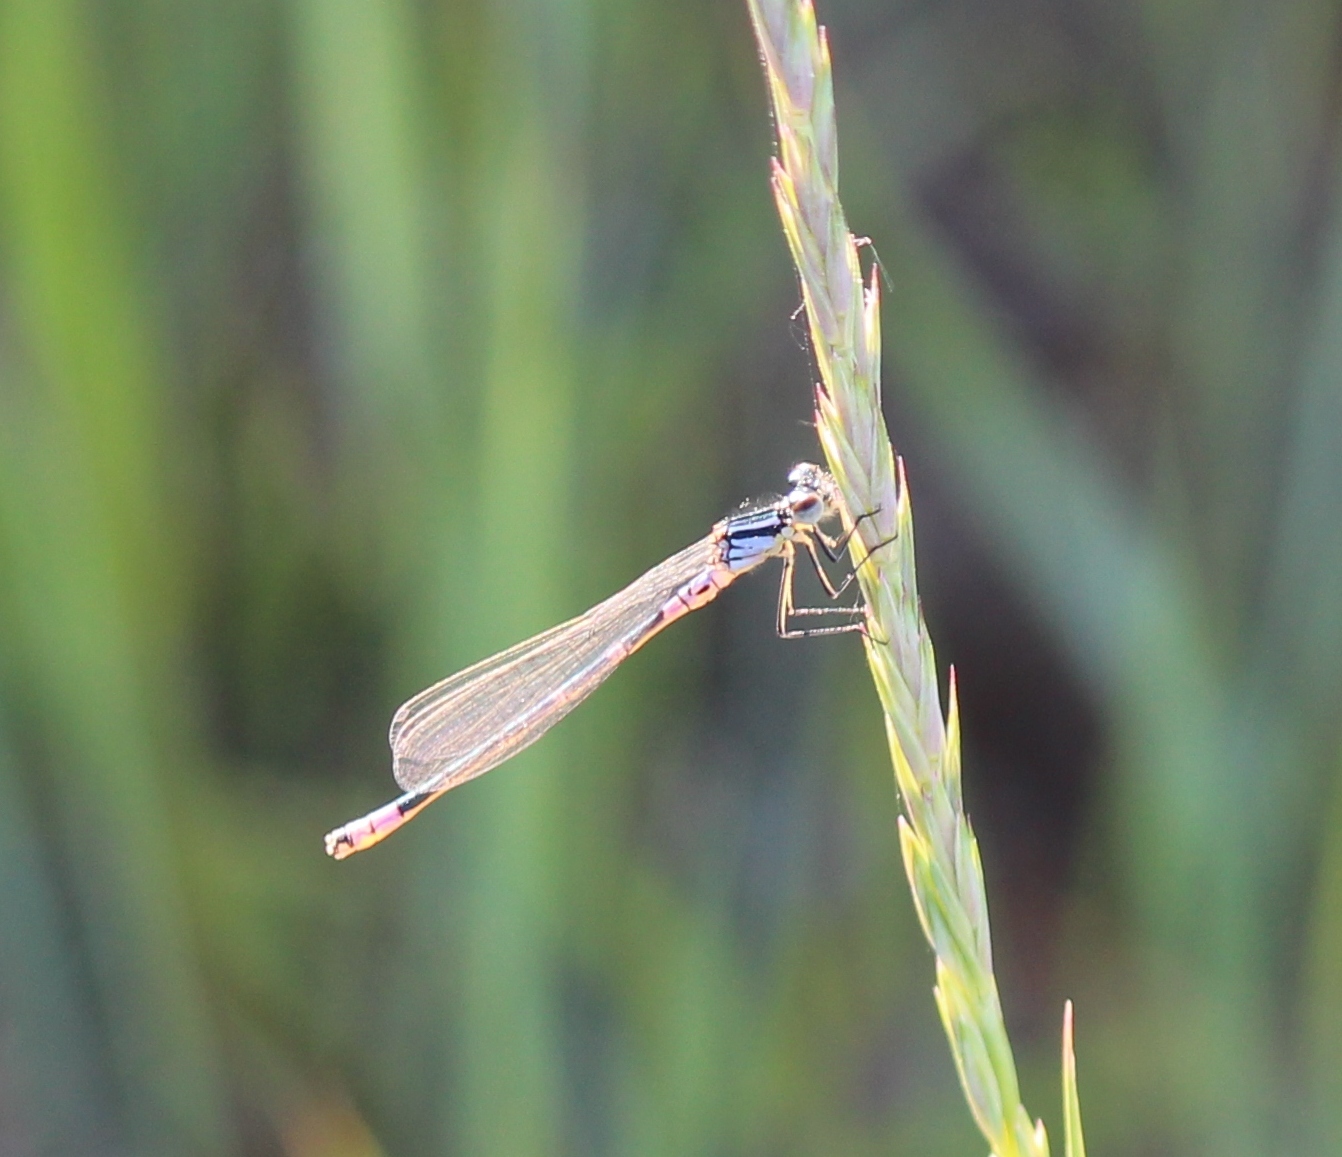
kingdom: Animalia
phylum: Arthropoda
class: Insecta
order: Odonata
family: Coenagrionidae
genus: Coenagrion
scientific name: Coenagrion lunulatum
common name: Irish damselfly
